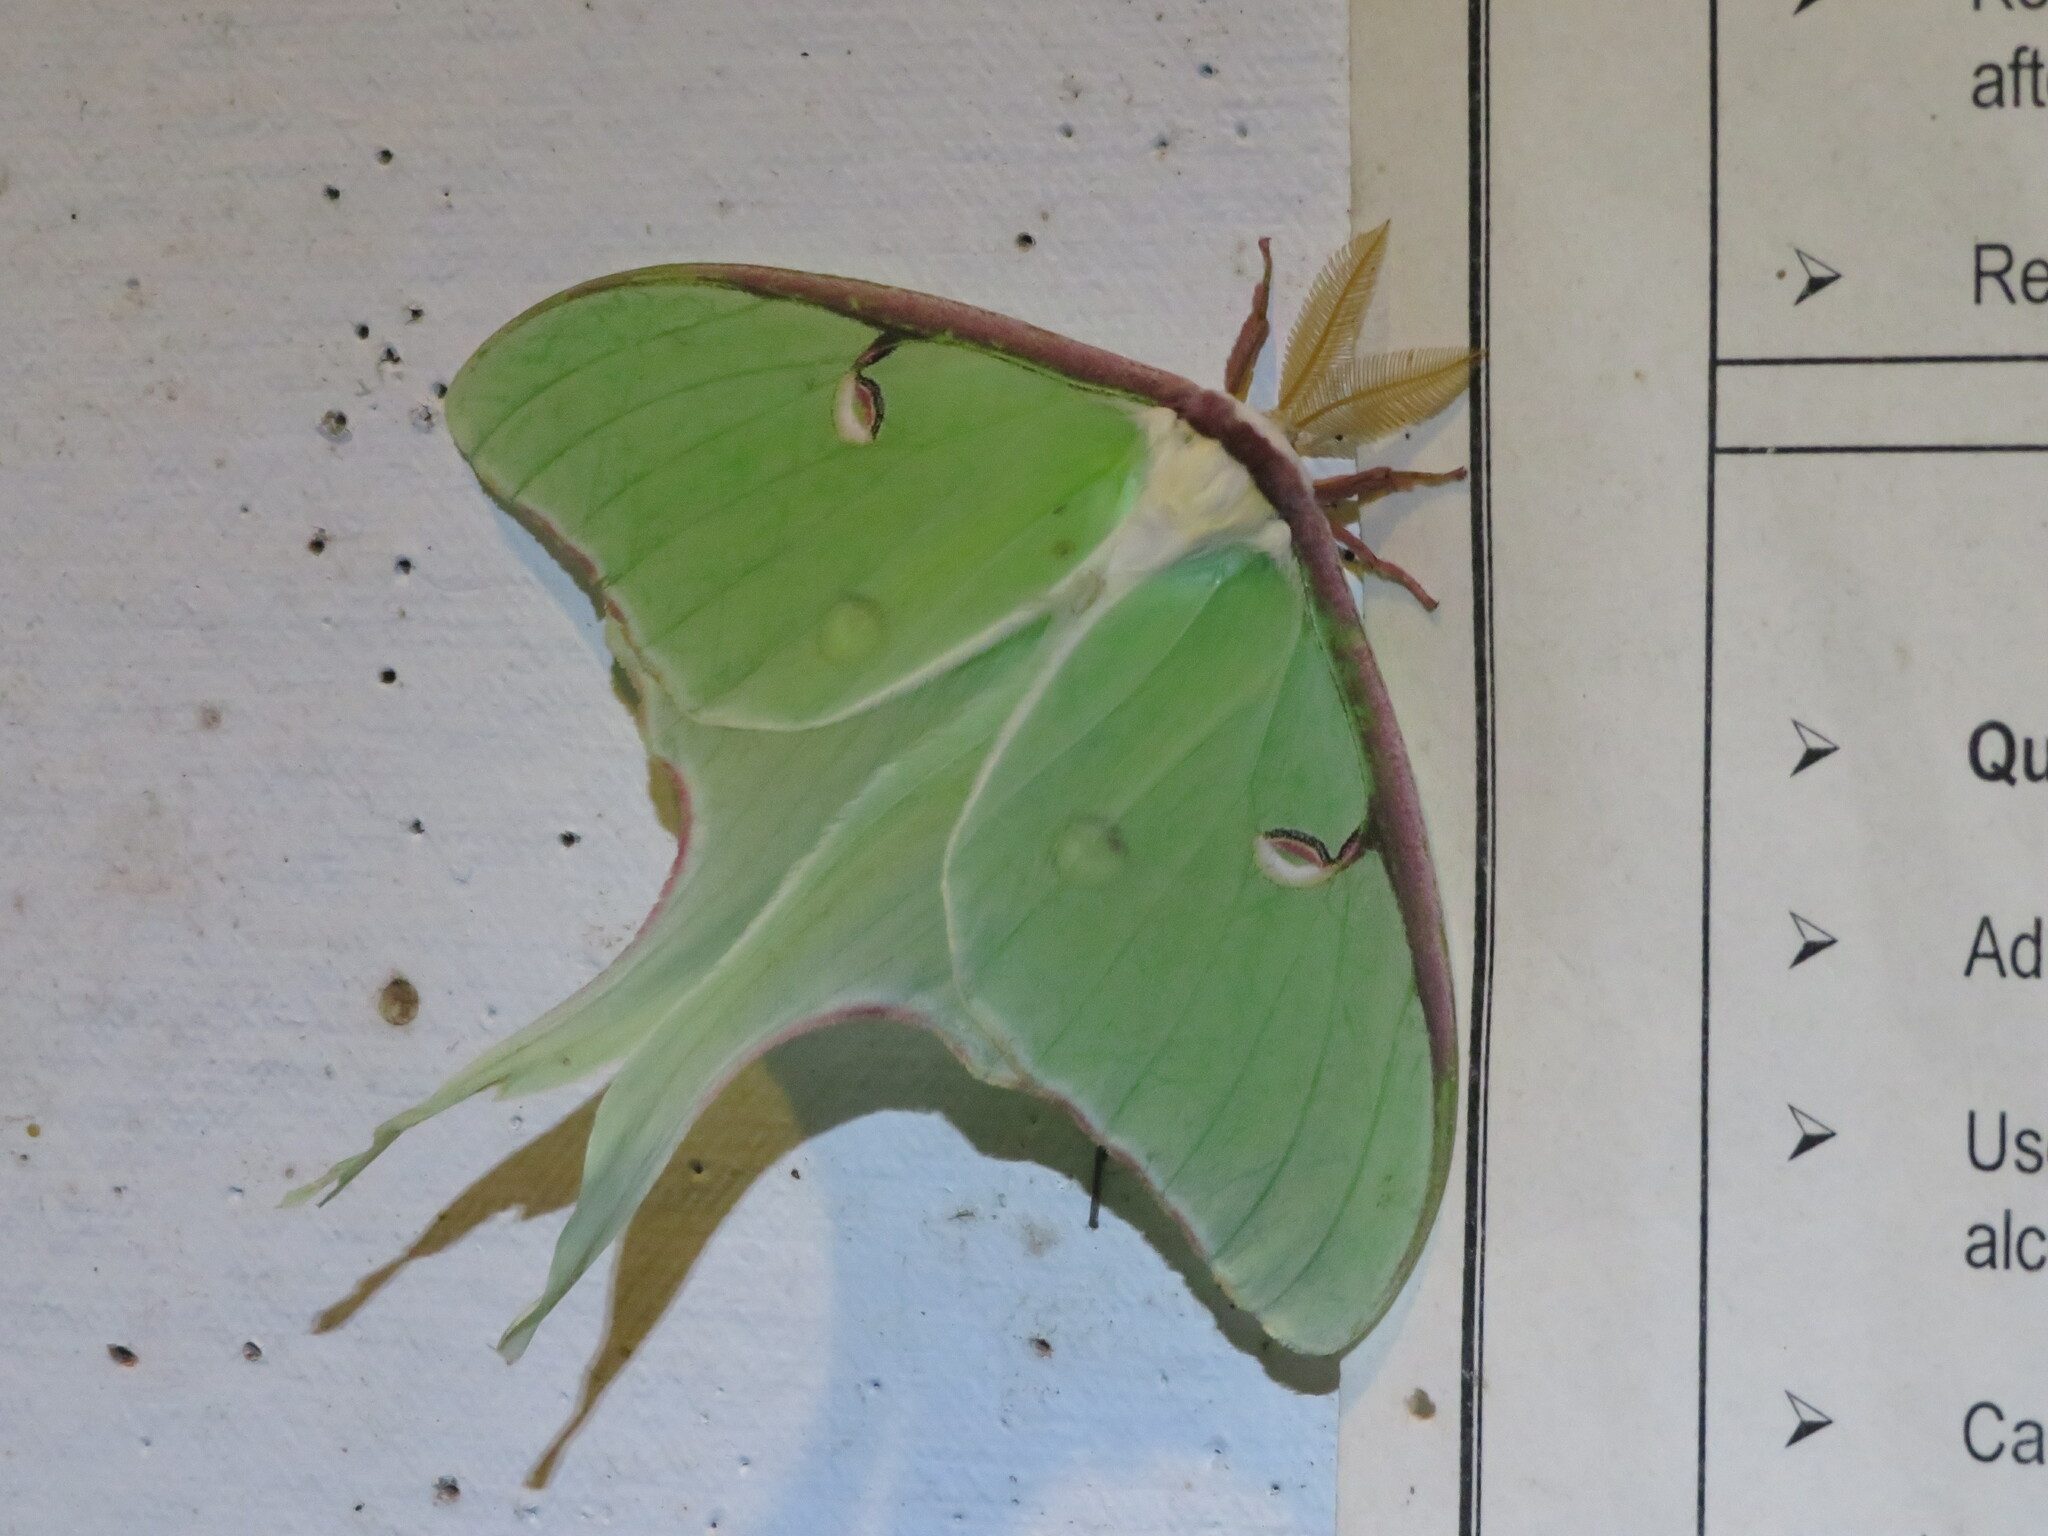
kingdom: Animalia
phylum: Arthropoda
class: Insecta
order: Lepidoptera
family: Saturniidae
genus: Actias
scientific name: Actias luna
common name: Luna moth
